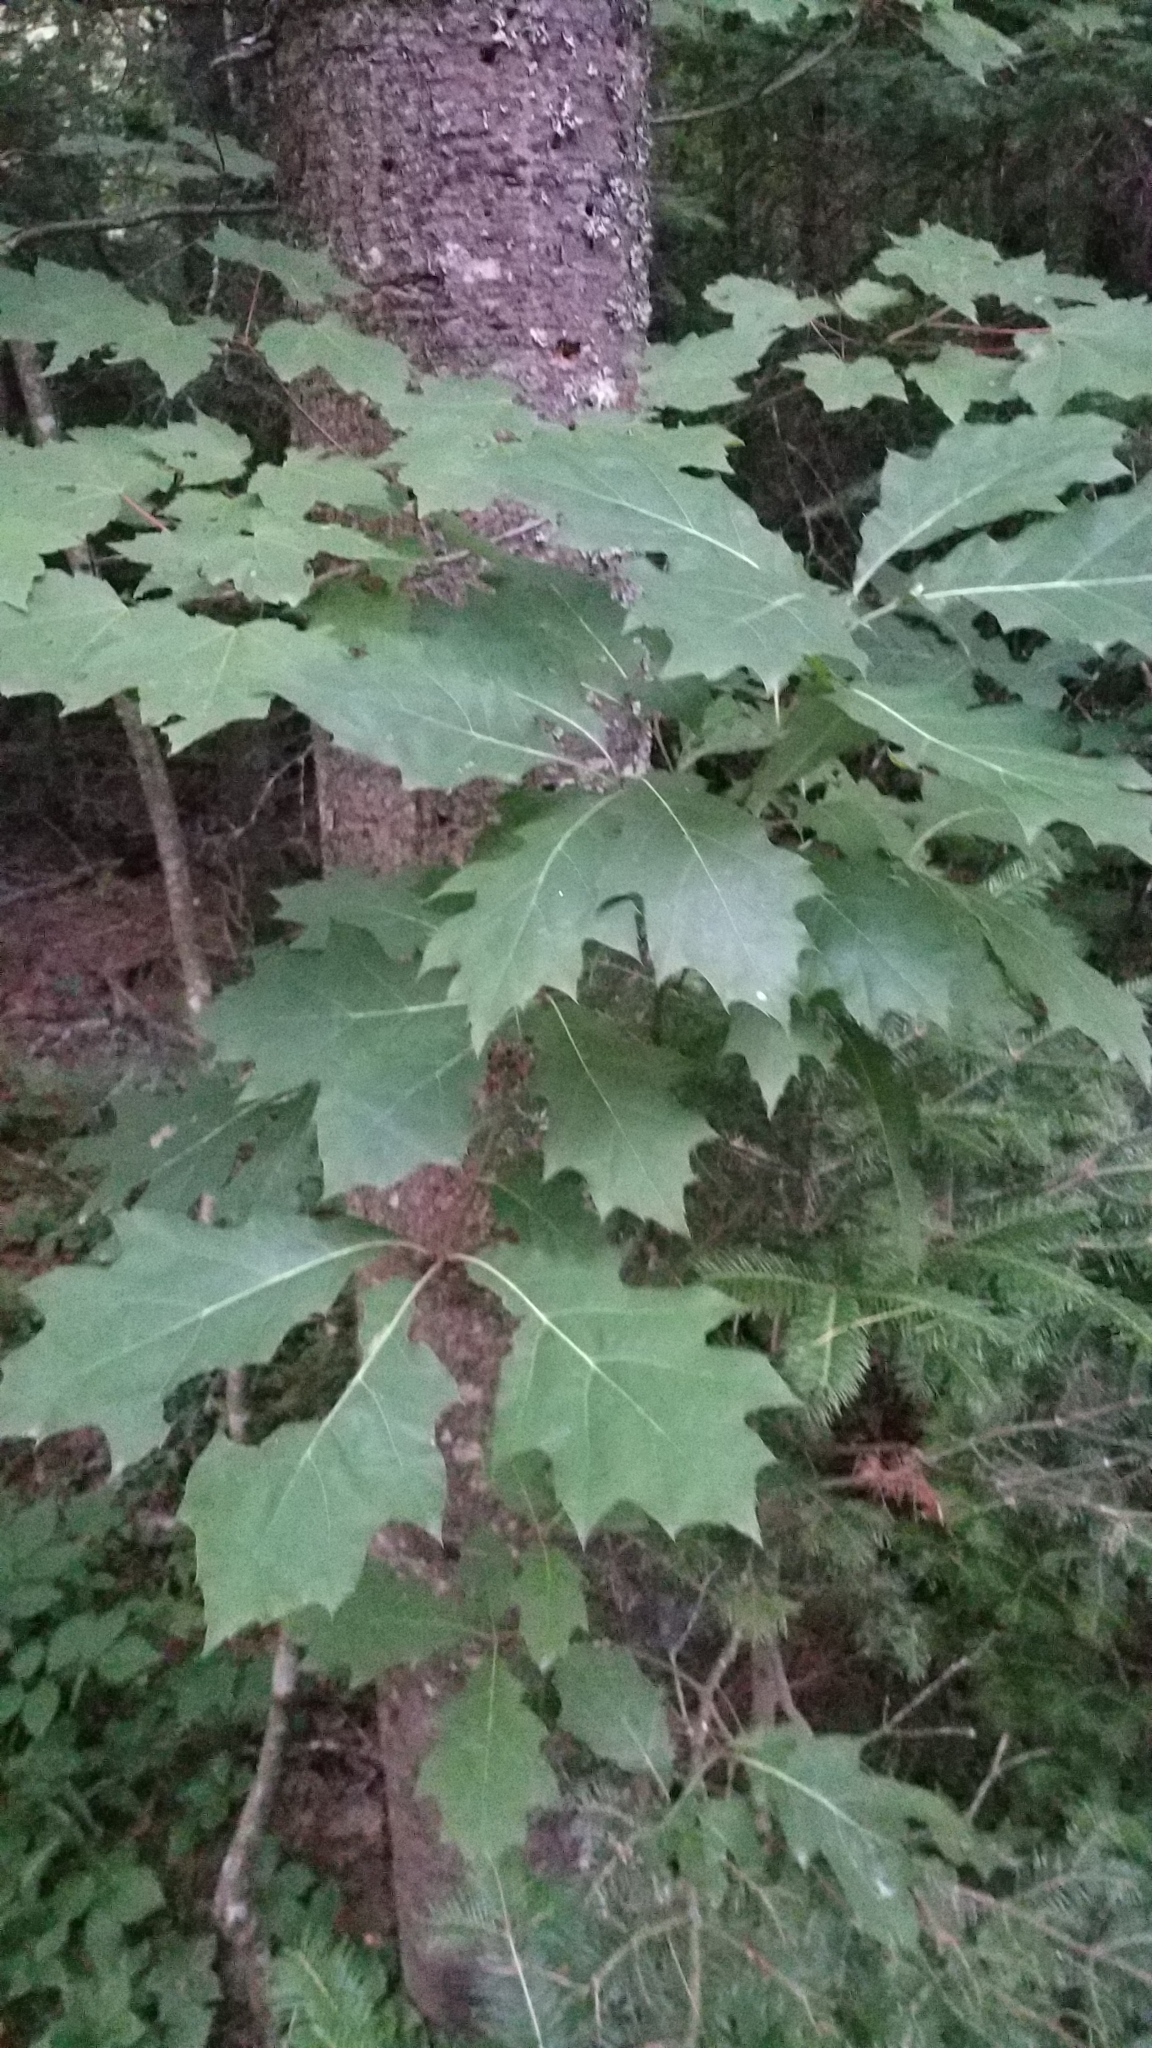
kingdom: Plantae
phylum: Tracheophyta
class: Magnoliopsida
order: Fagales
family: Fagaceae
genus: Quercus
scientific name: Quercus rubra
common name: Red oak
